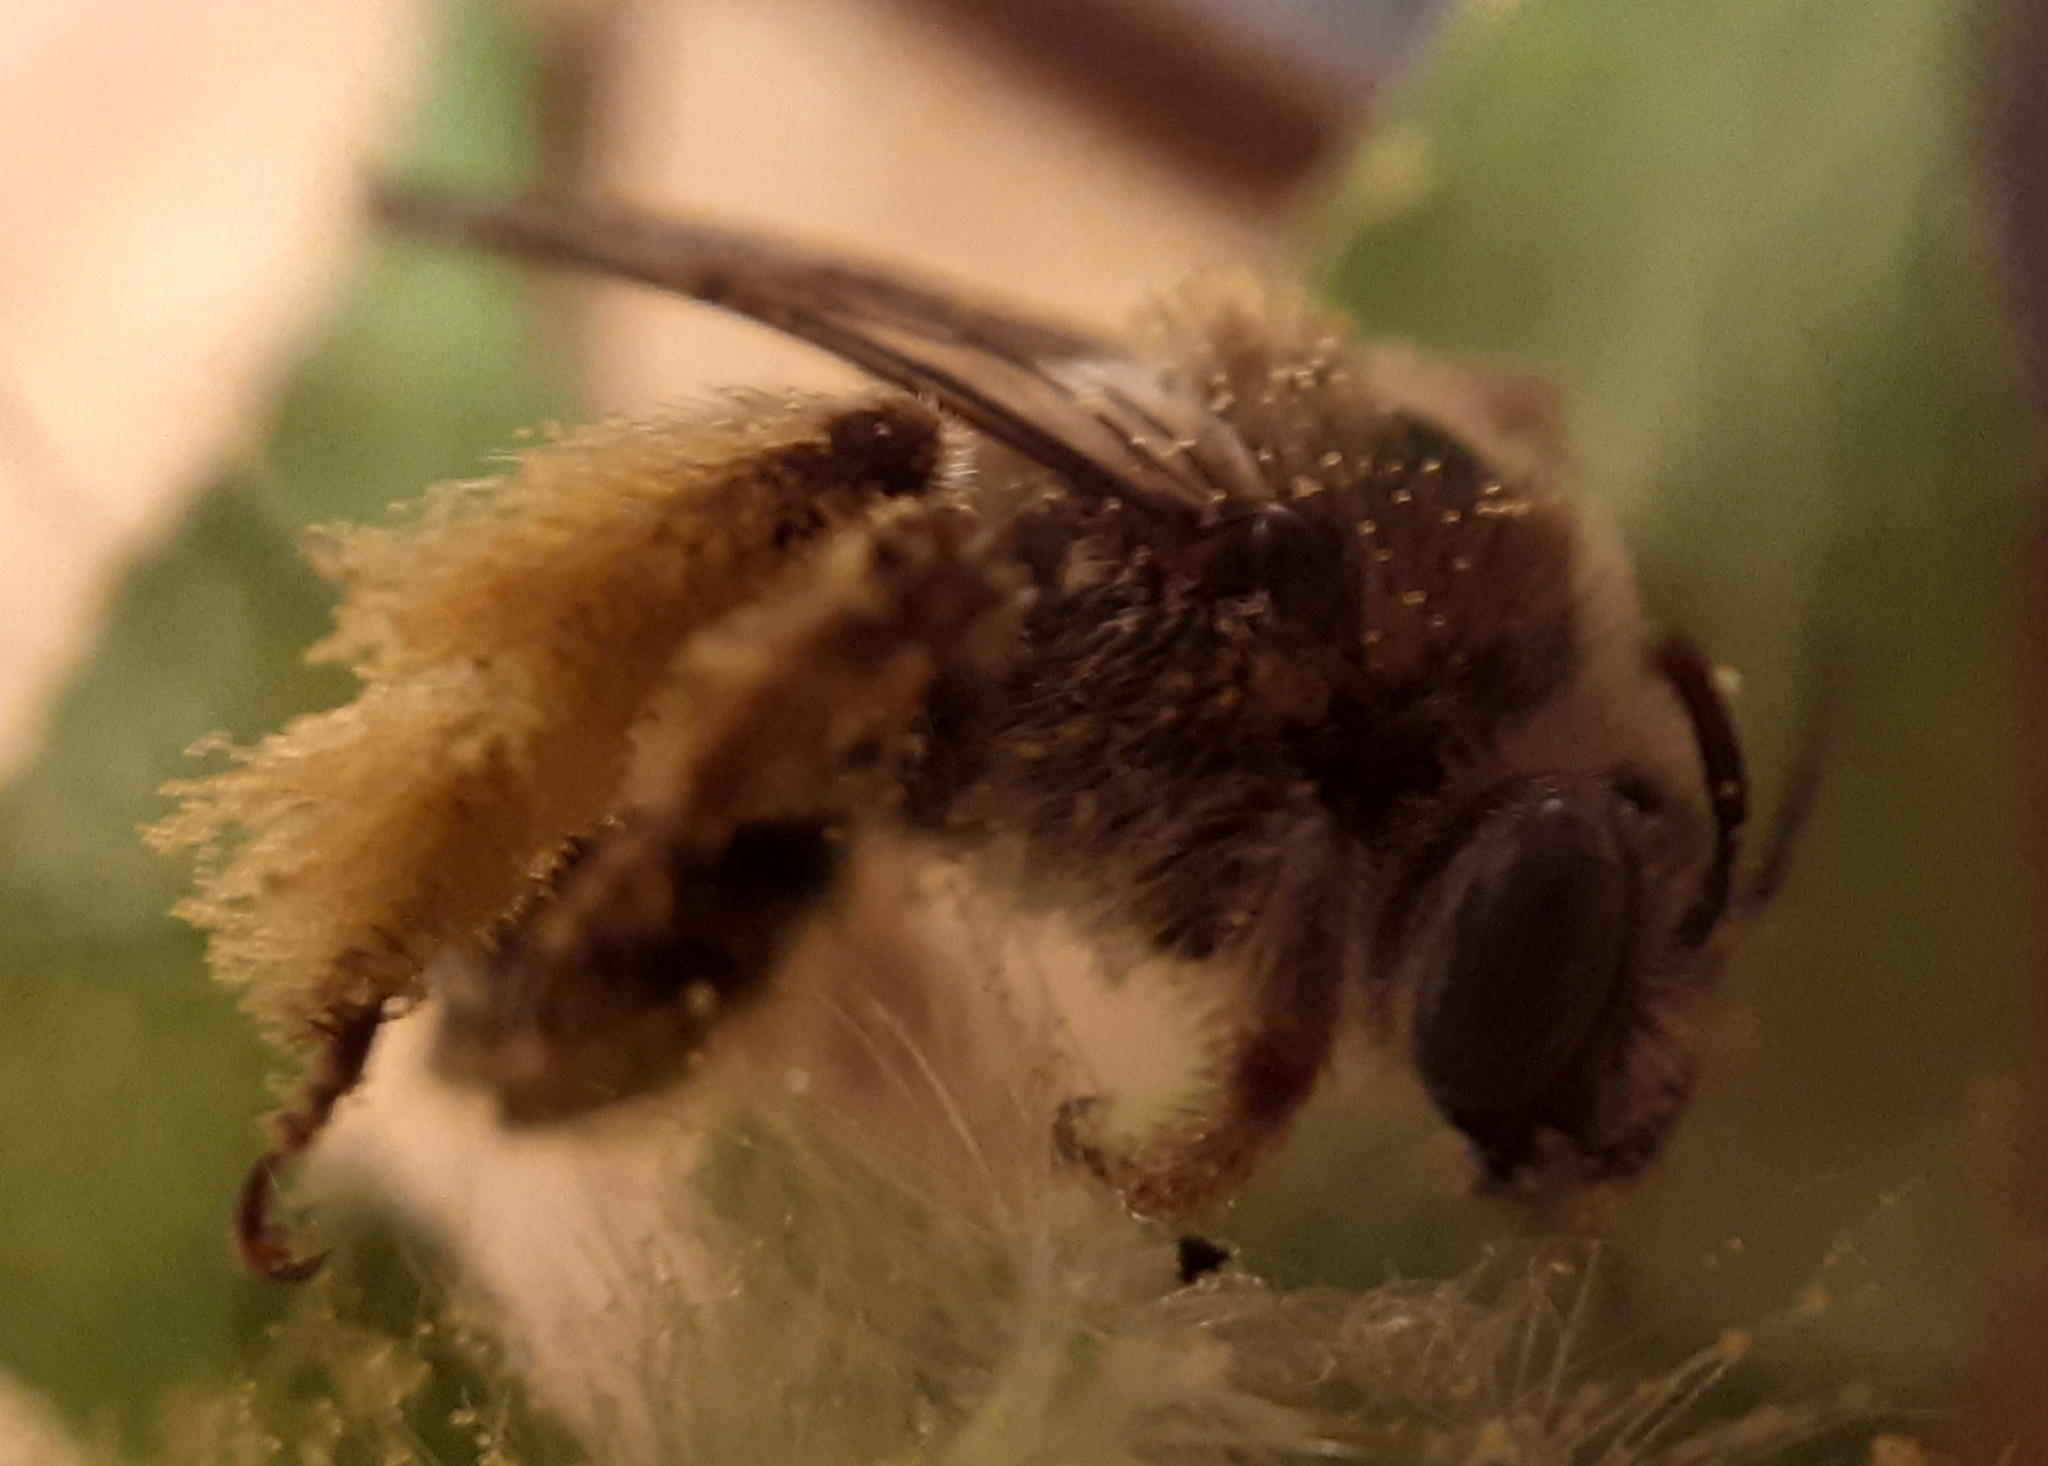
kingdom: Animalia
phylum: Arthropoda
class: Insecta
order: Hymenoptera
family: Apidae
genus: Tetralonia
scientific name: Tetralonia malvae
